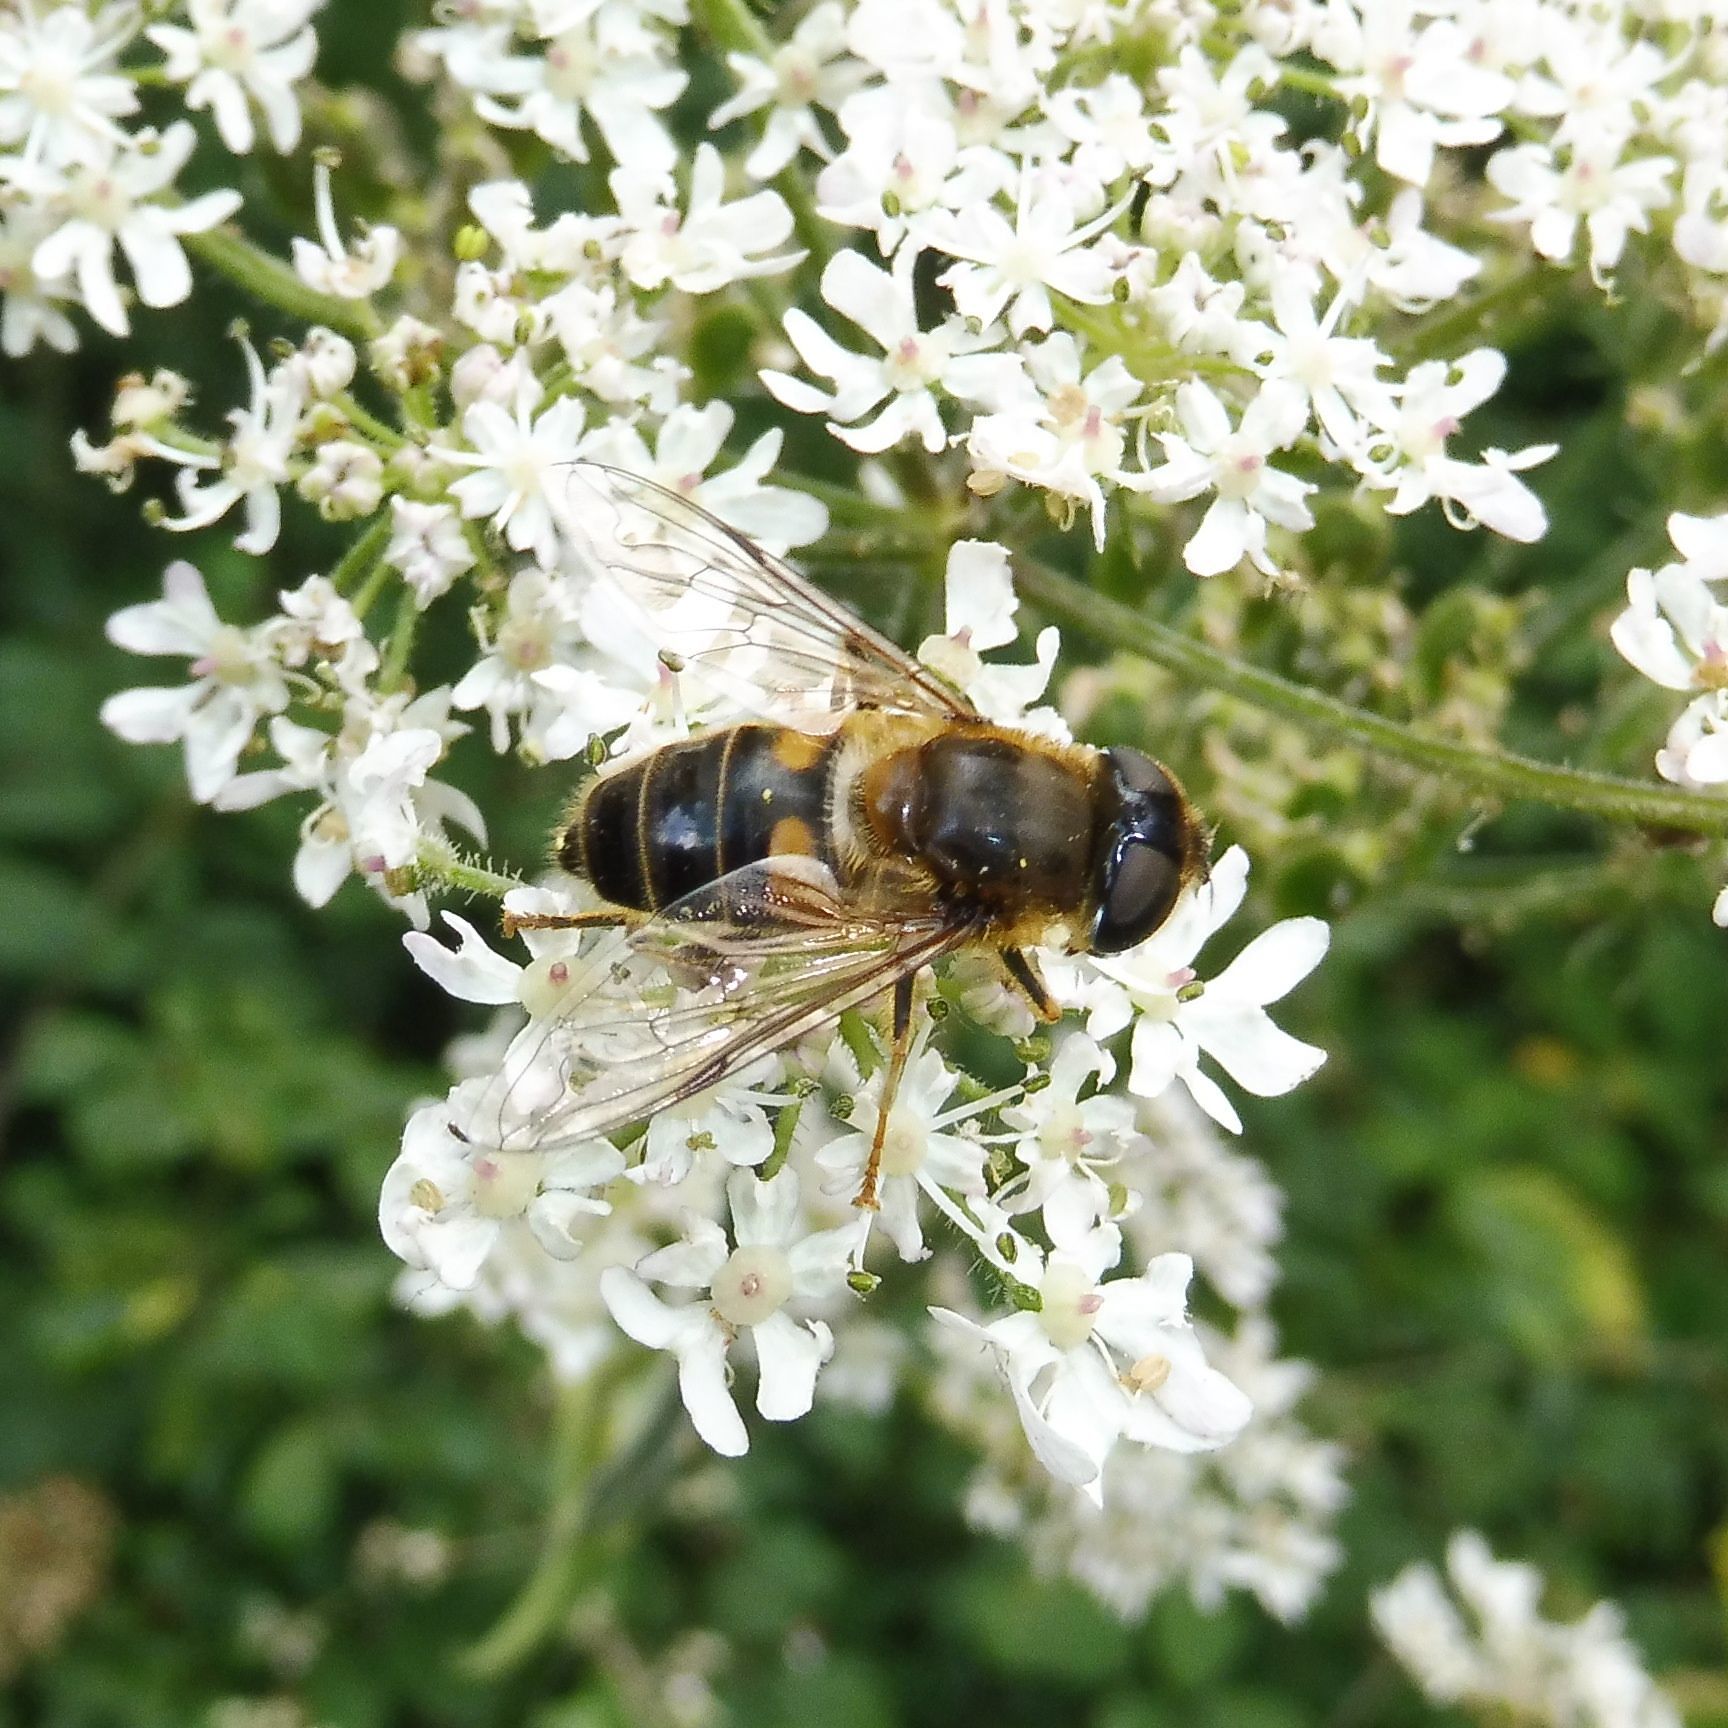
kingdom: Animalia
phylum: Arthropoda
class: Insecta
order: Diptera
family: Syrphidae
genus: Eristalis
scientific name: Eristalis pertinax
